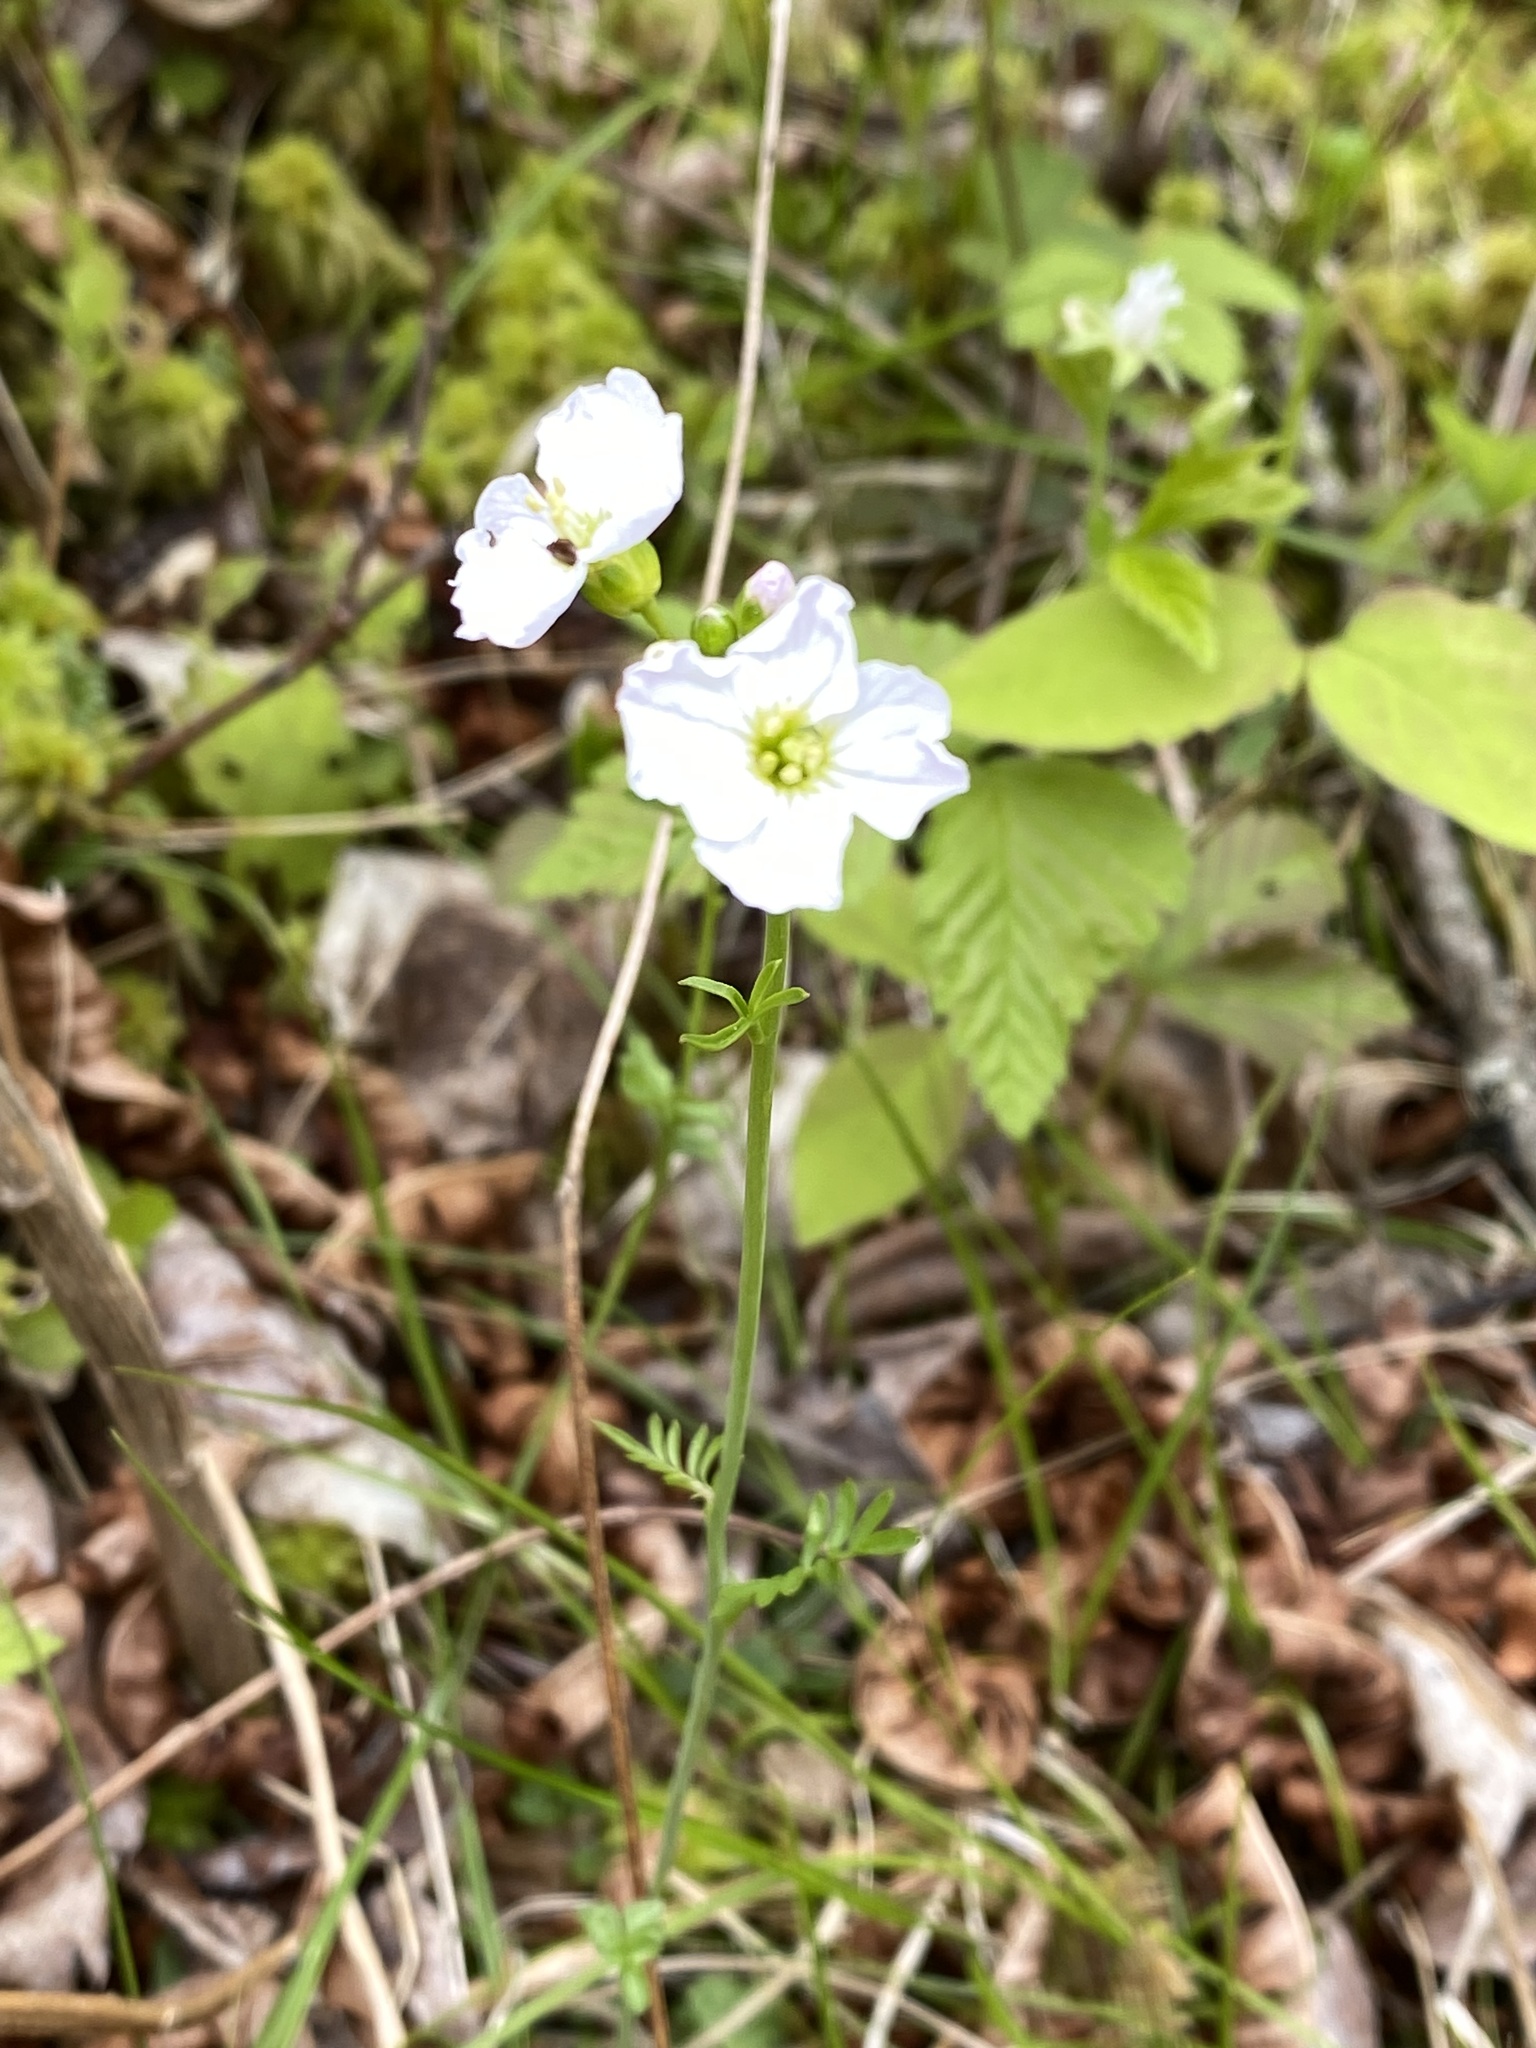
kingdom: Plantae
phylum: Tracheophyta
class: Magnoliopsida
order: Brassicales
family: Brassicaceae
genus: Cardamine
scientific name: Cardamine pratensis
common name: Cuckoo flower
